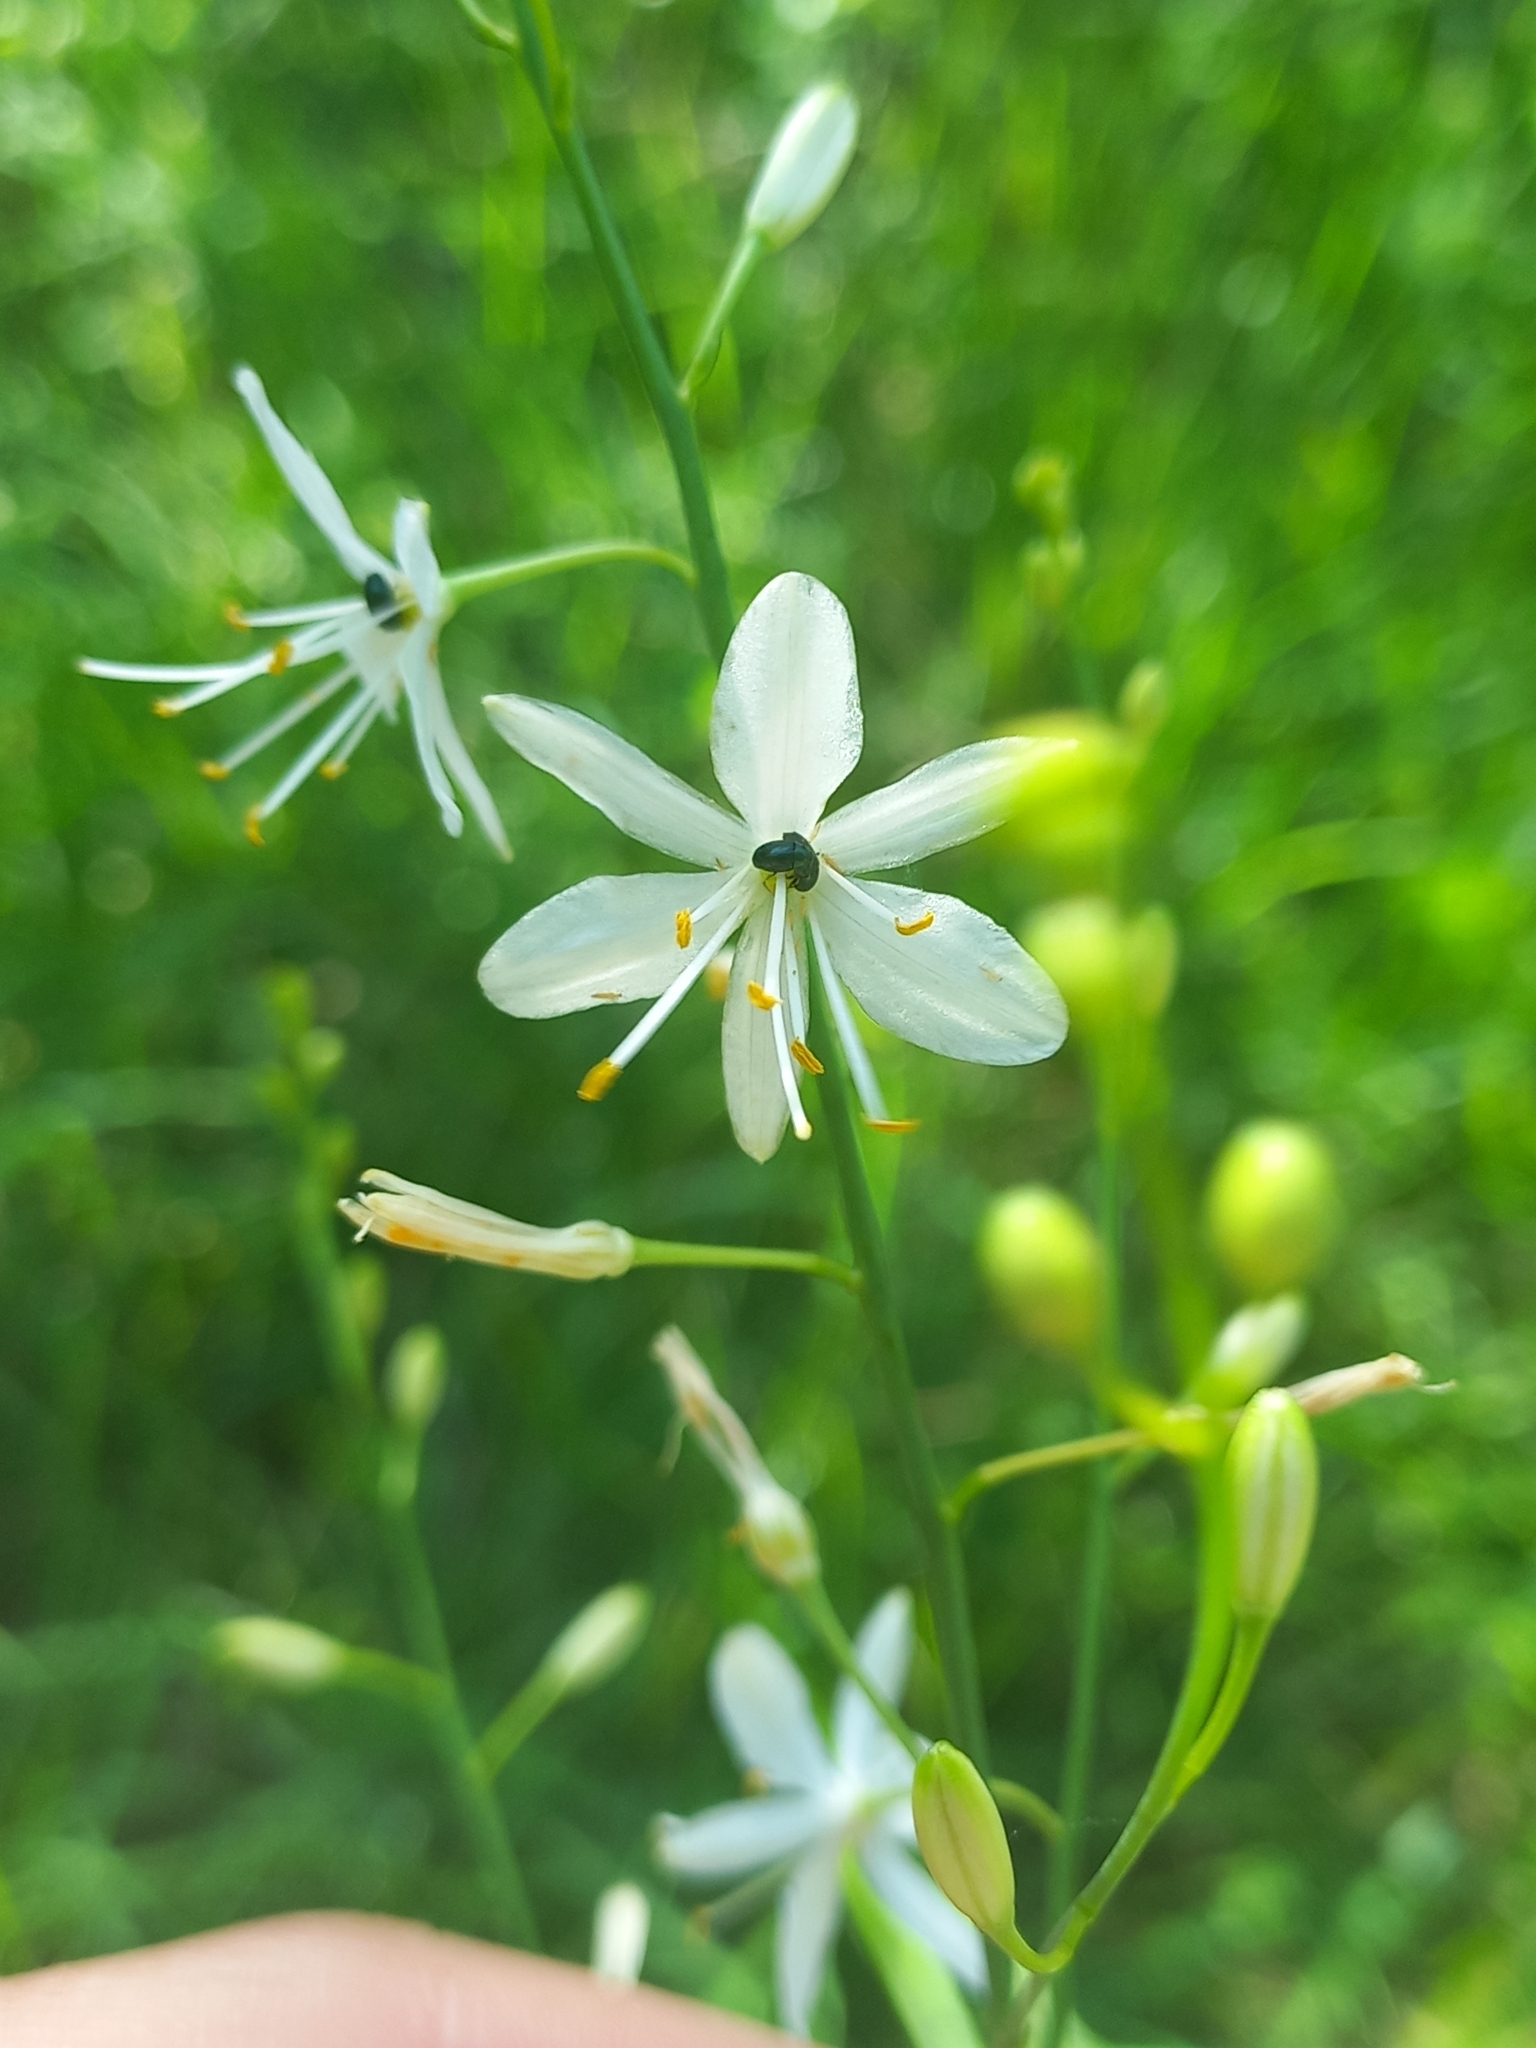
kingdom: Plantae
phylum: Tracheophyta
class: Liliopsida
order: Asparagales
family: Asparagaceae
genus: Anthericum
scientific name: Anthericum ramosum
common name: Branched st. bernard's-lily
